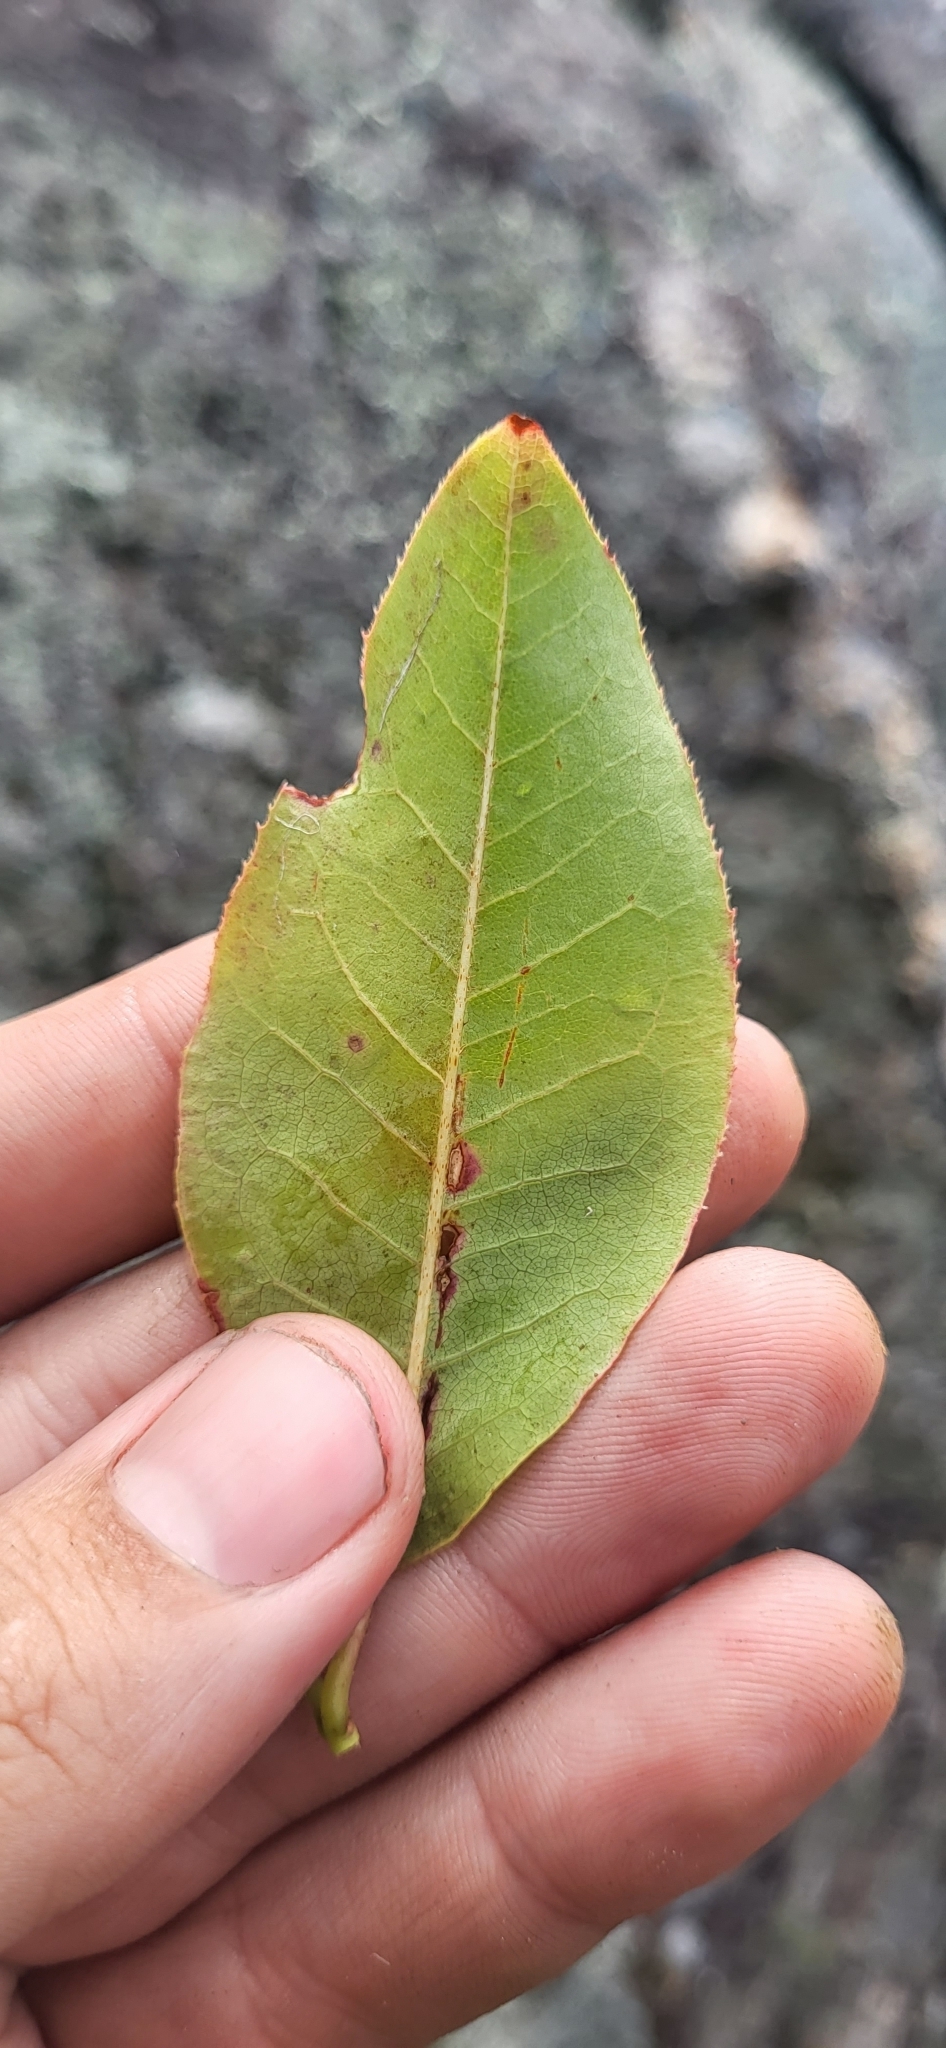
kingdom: Plantae
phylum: Tracheophyta
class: Magnoliopsida
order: Ericales
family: Ericaceae
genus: Oxydendrum
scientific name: Oxydendrum arboreum
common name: Sourwood
